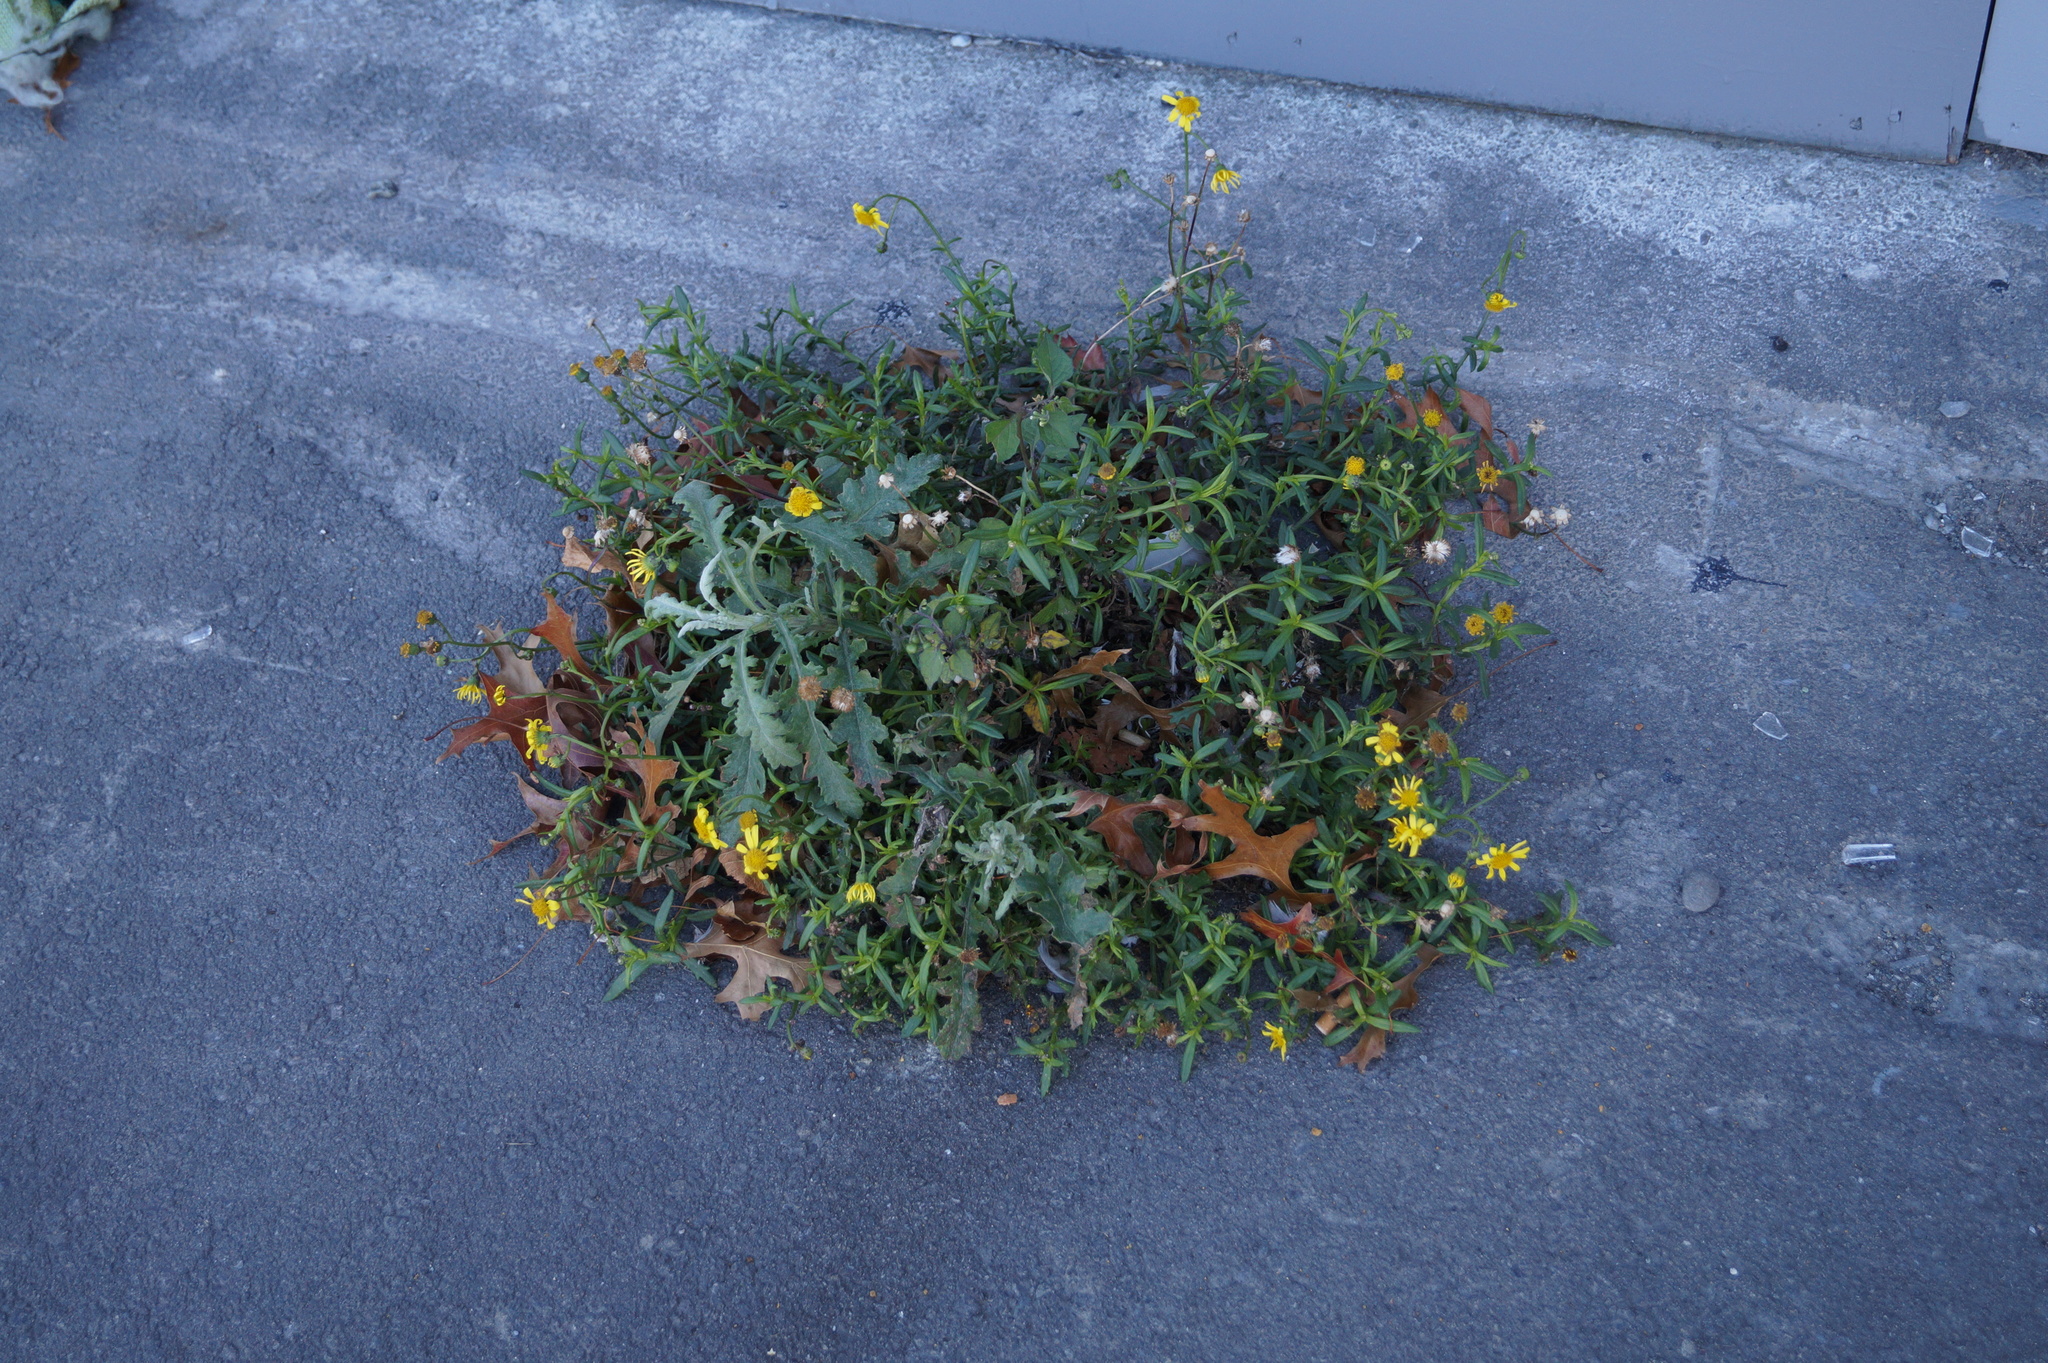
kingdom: Plantae
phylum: Tracheophyta
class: Magnoliopsida
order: Asterales
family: Asteraceae
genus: Senecio
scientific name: Senecio skirrhodon
